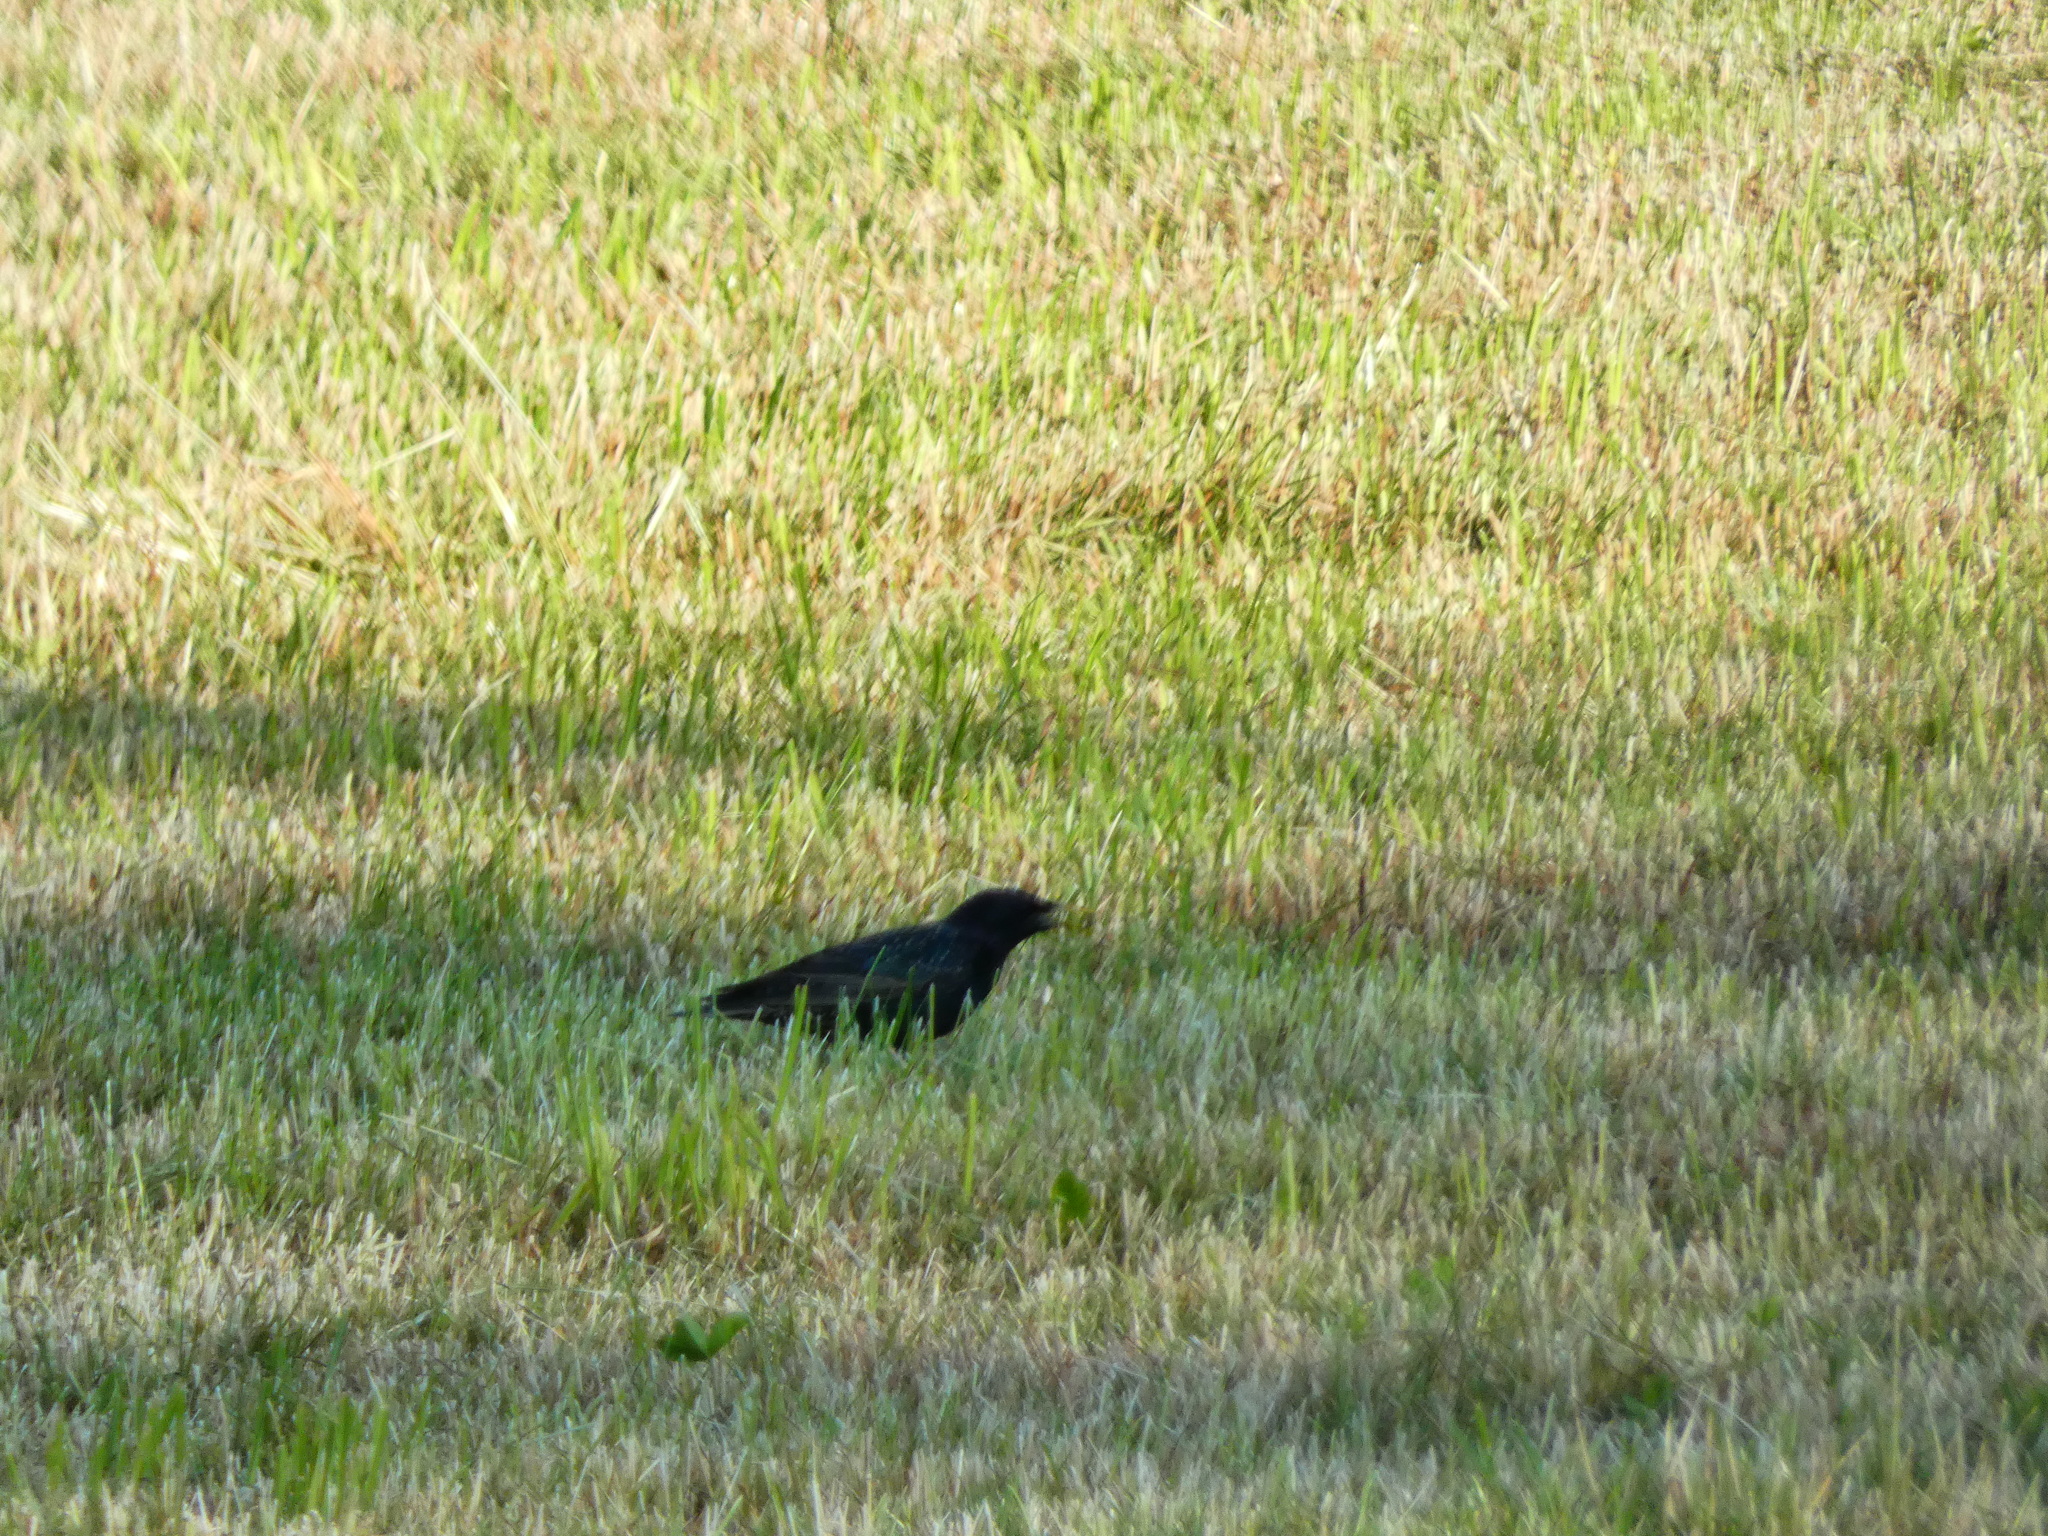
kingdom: Animalia
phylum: Chordata
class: Aves
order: Passeriformes
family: Sturnidae
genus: Sturnus
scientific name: Sturnus vulgaris
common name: Common starling
